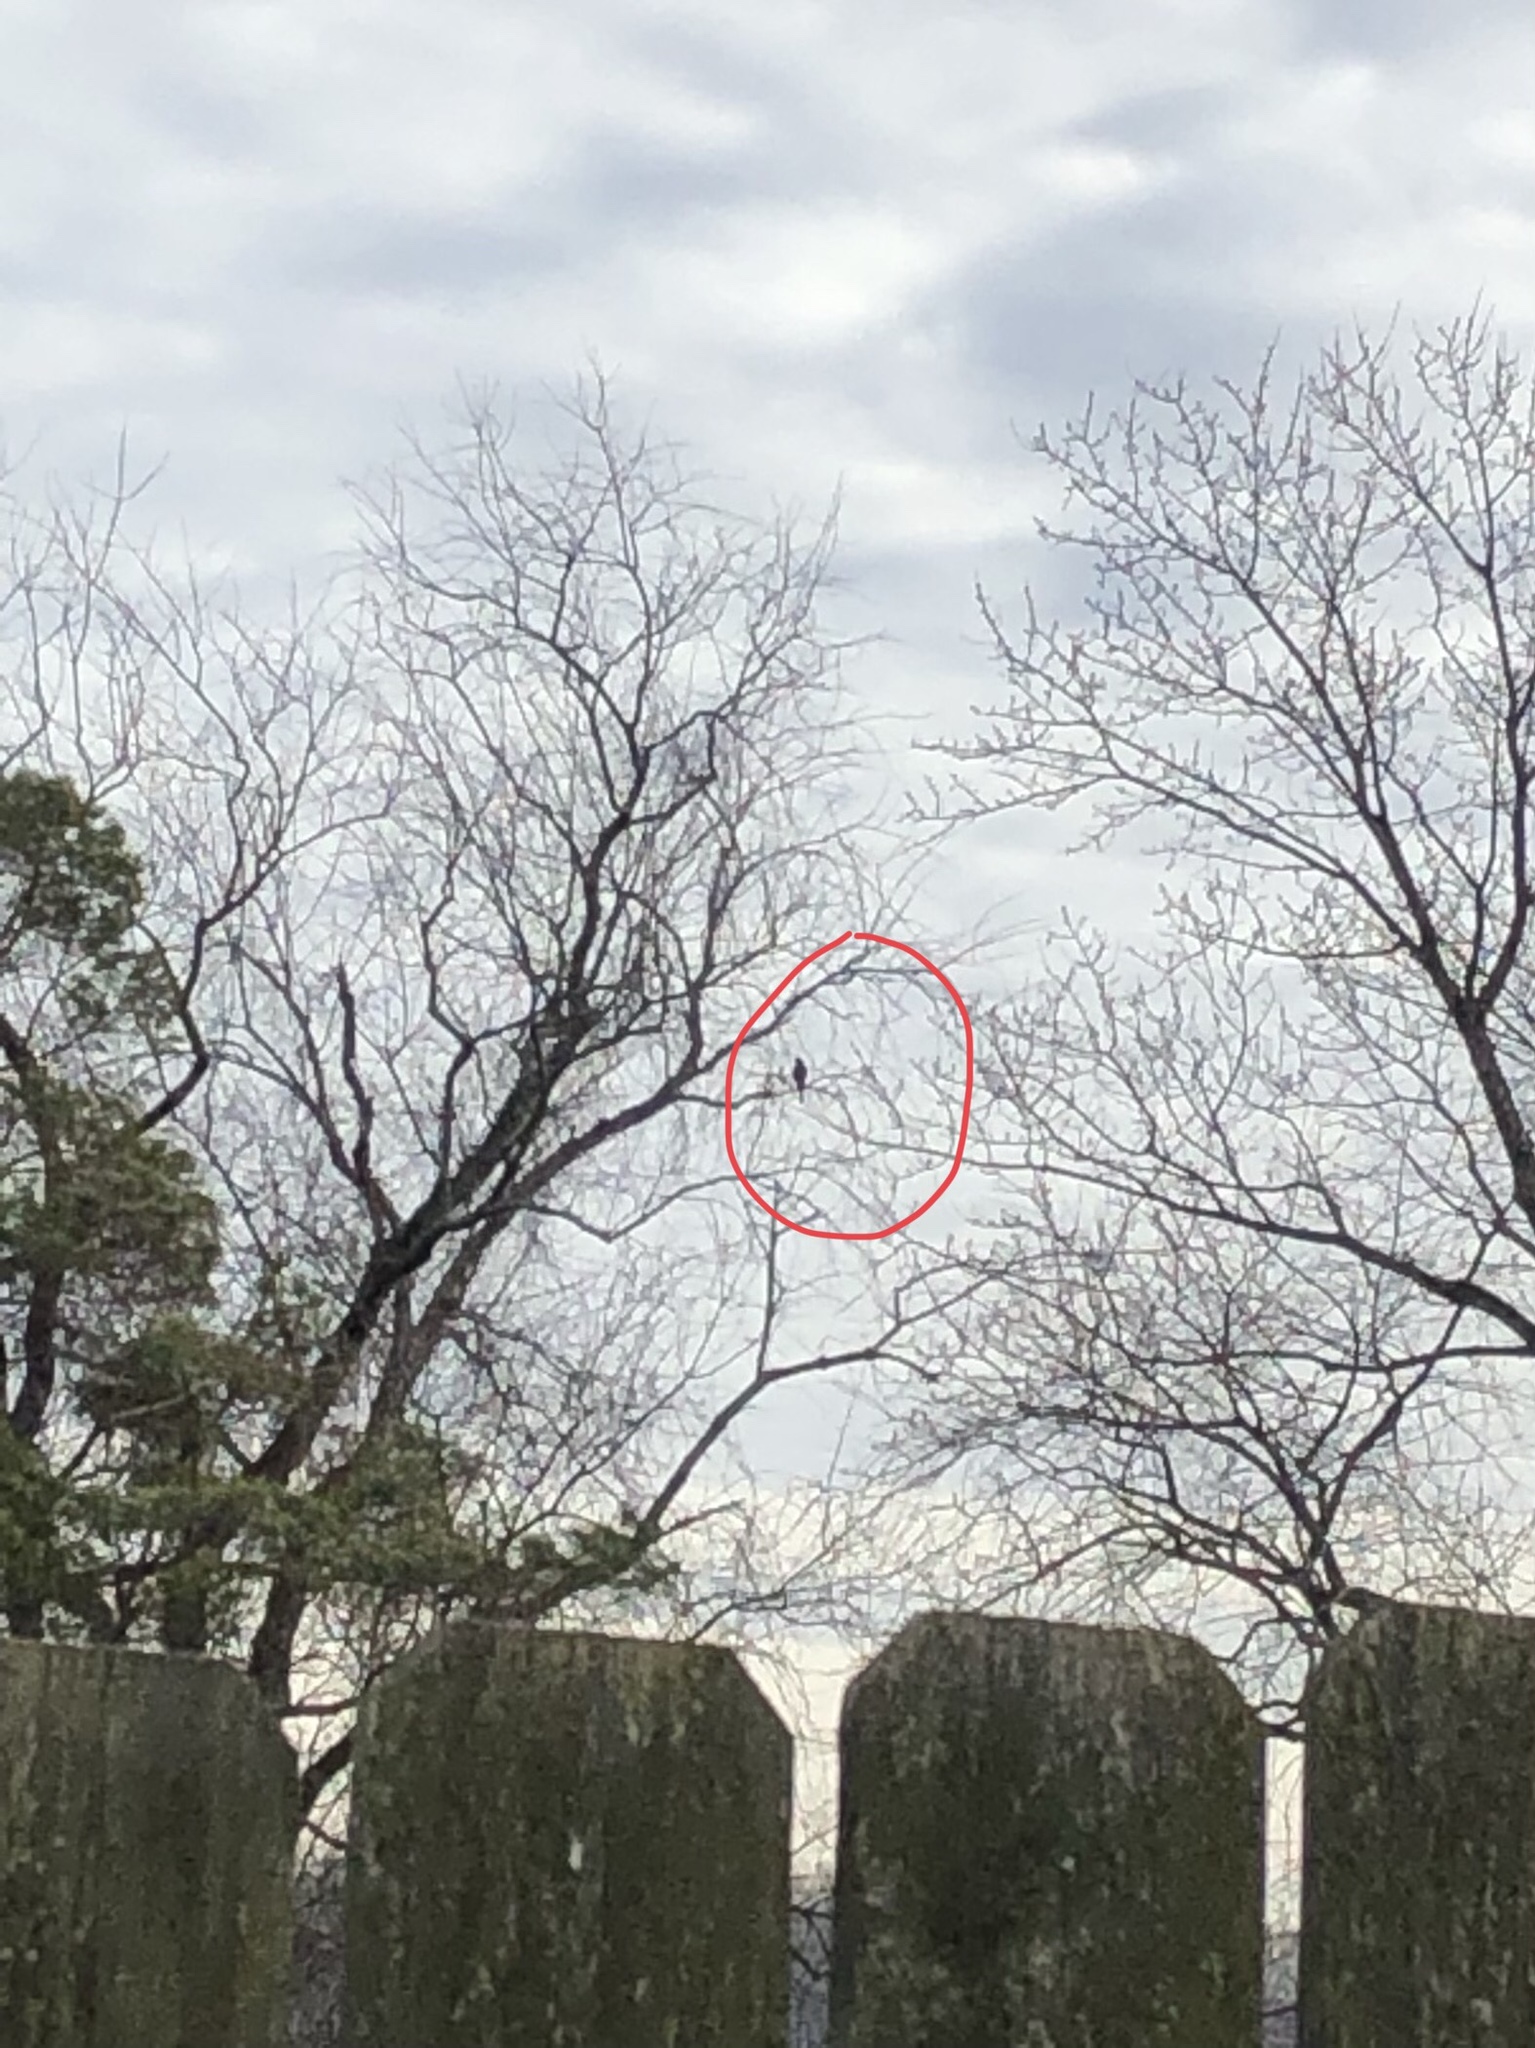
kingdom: Animalia
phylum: Chordata
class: Aves
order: Accipitriformes
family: Accipitridae
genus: Accipiter
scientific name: Accipiter
